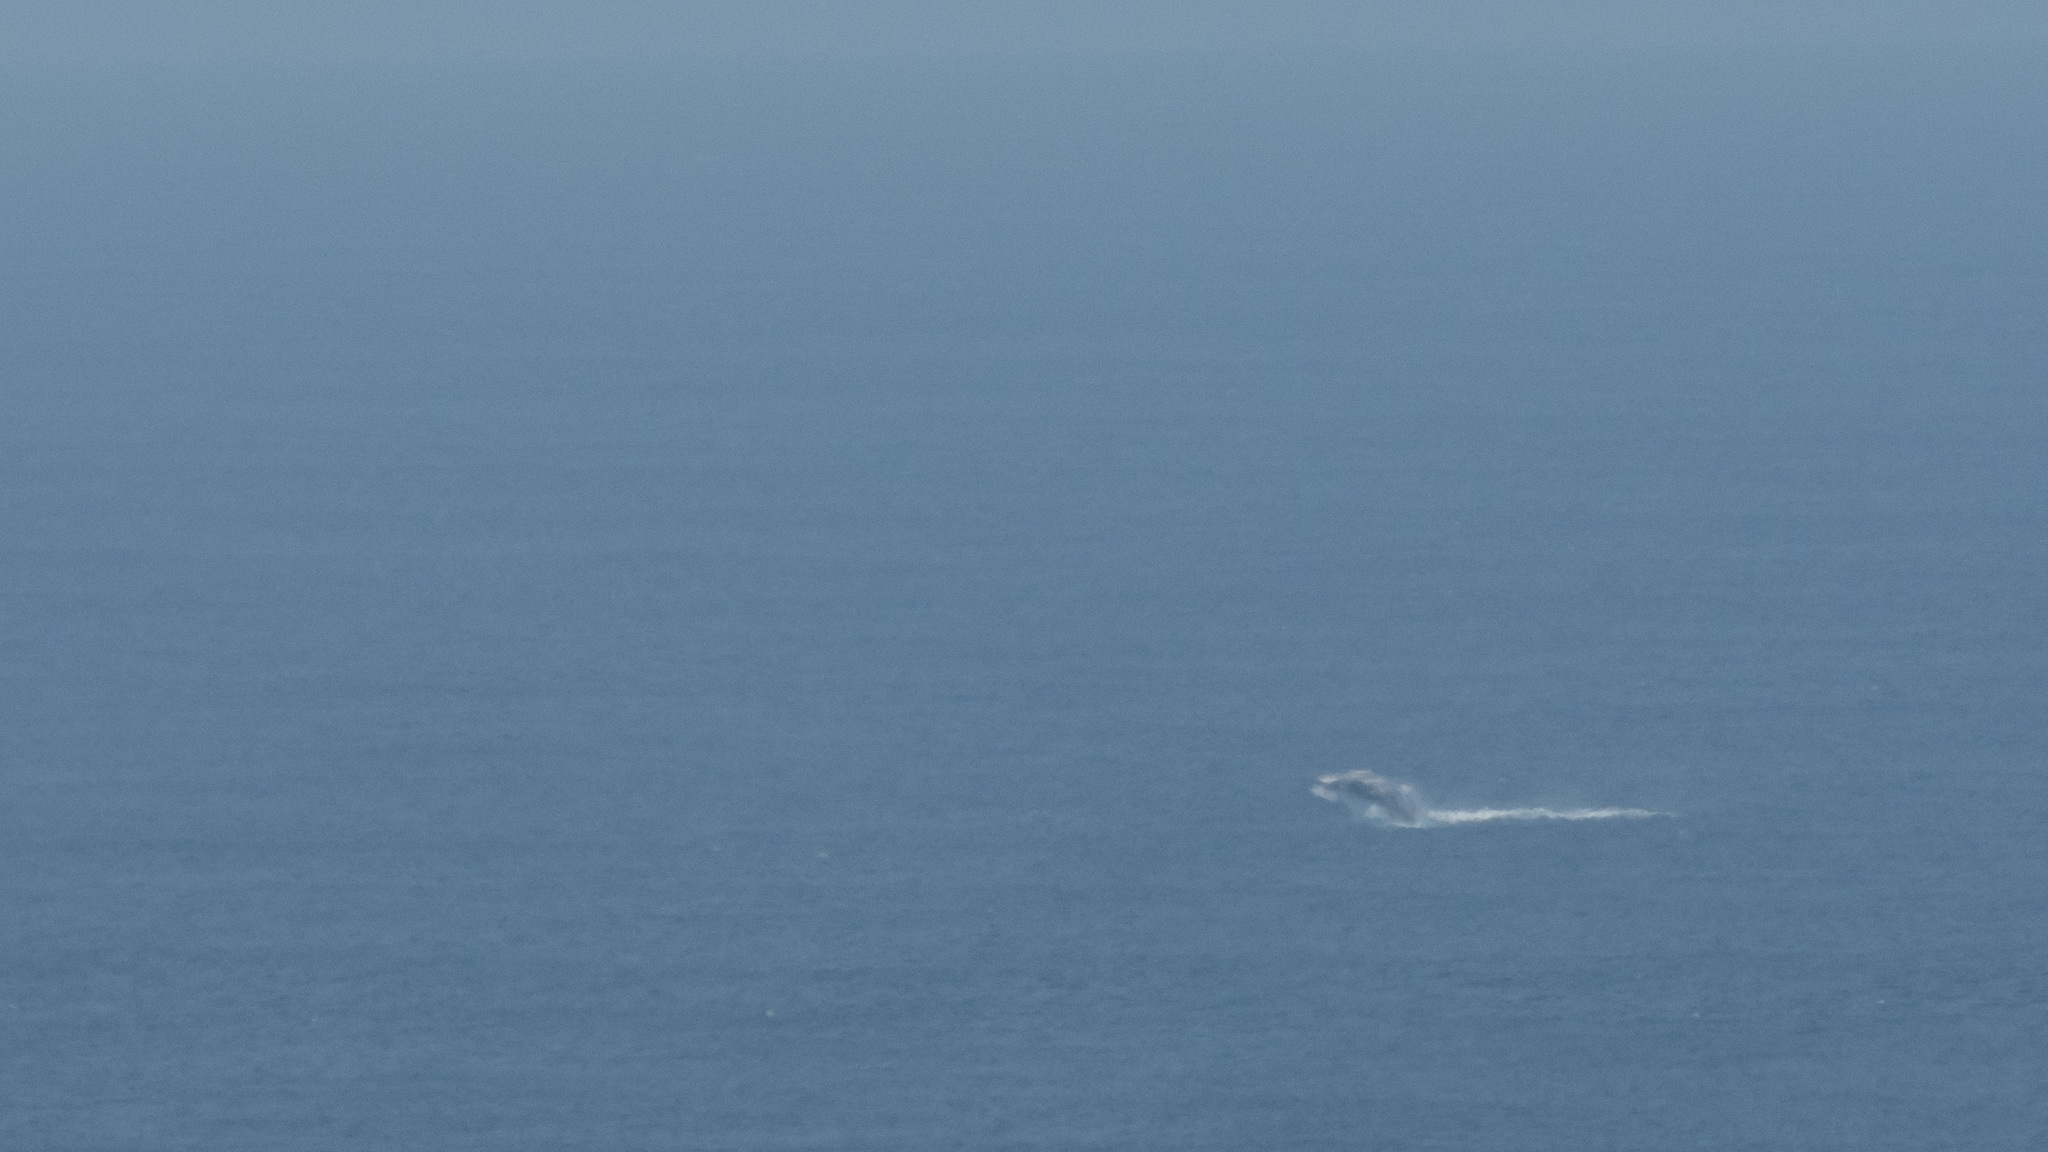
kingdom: Animalia
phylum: Chordata
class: Mammalia
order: Cetacea
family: Balaenopteridae
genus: Megaptera
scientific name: Megaptera novaeangliae
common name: Humpback whale
